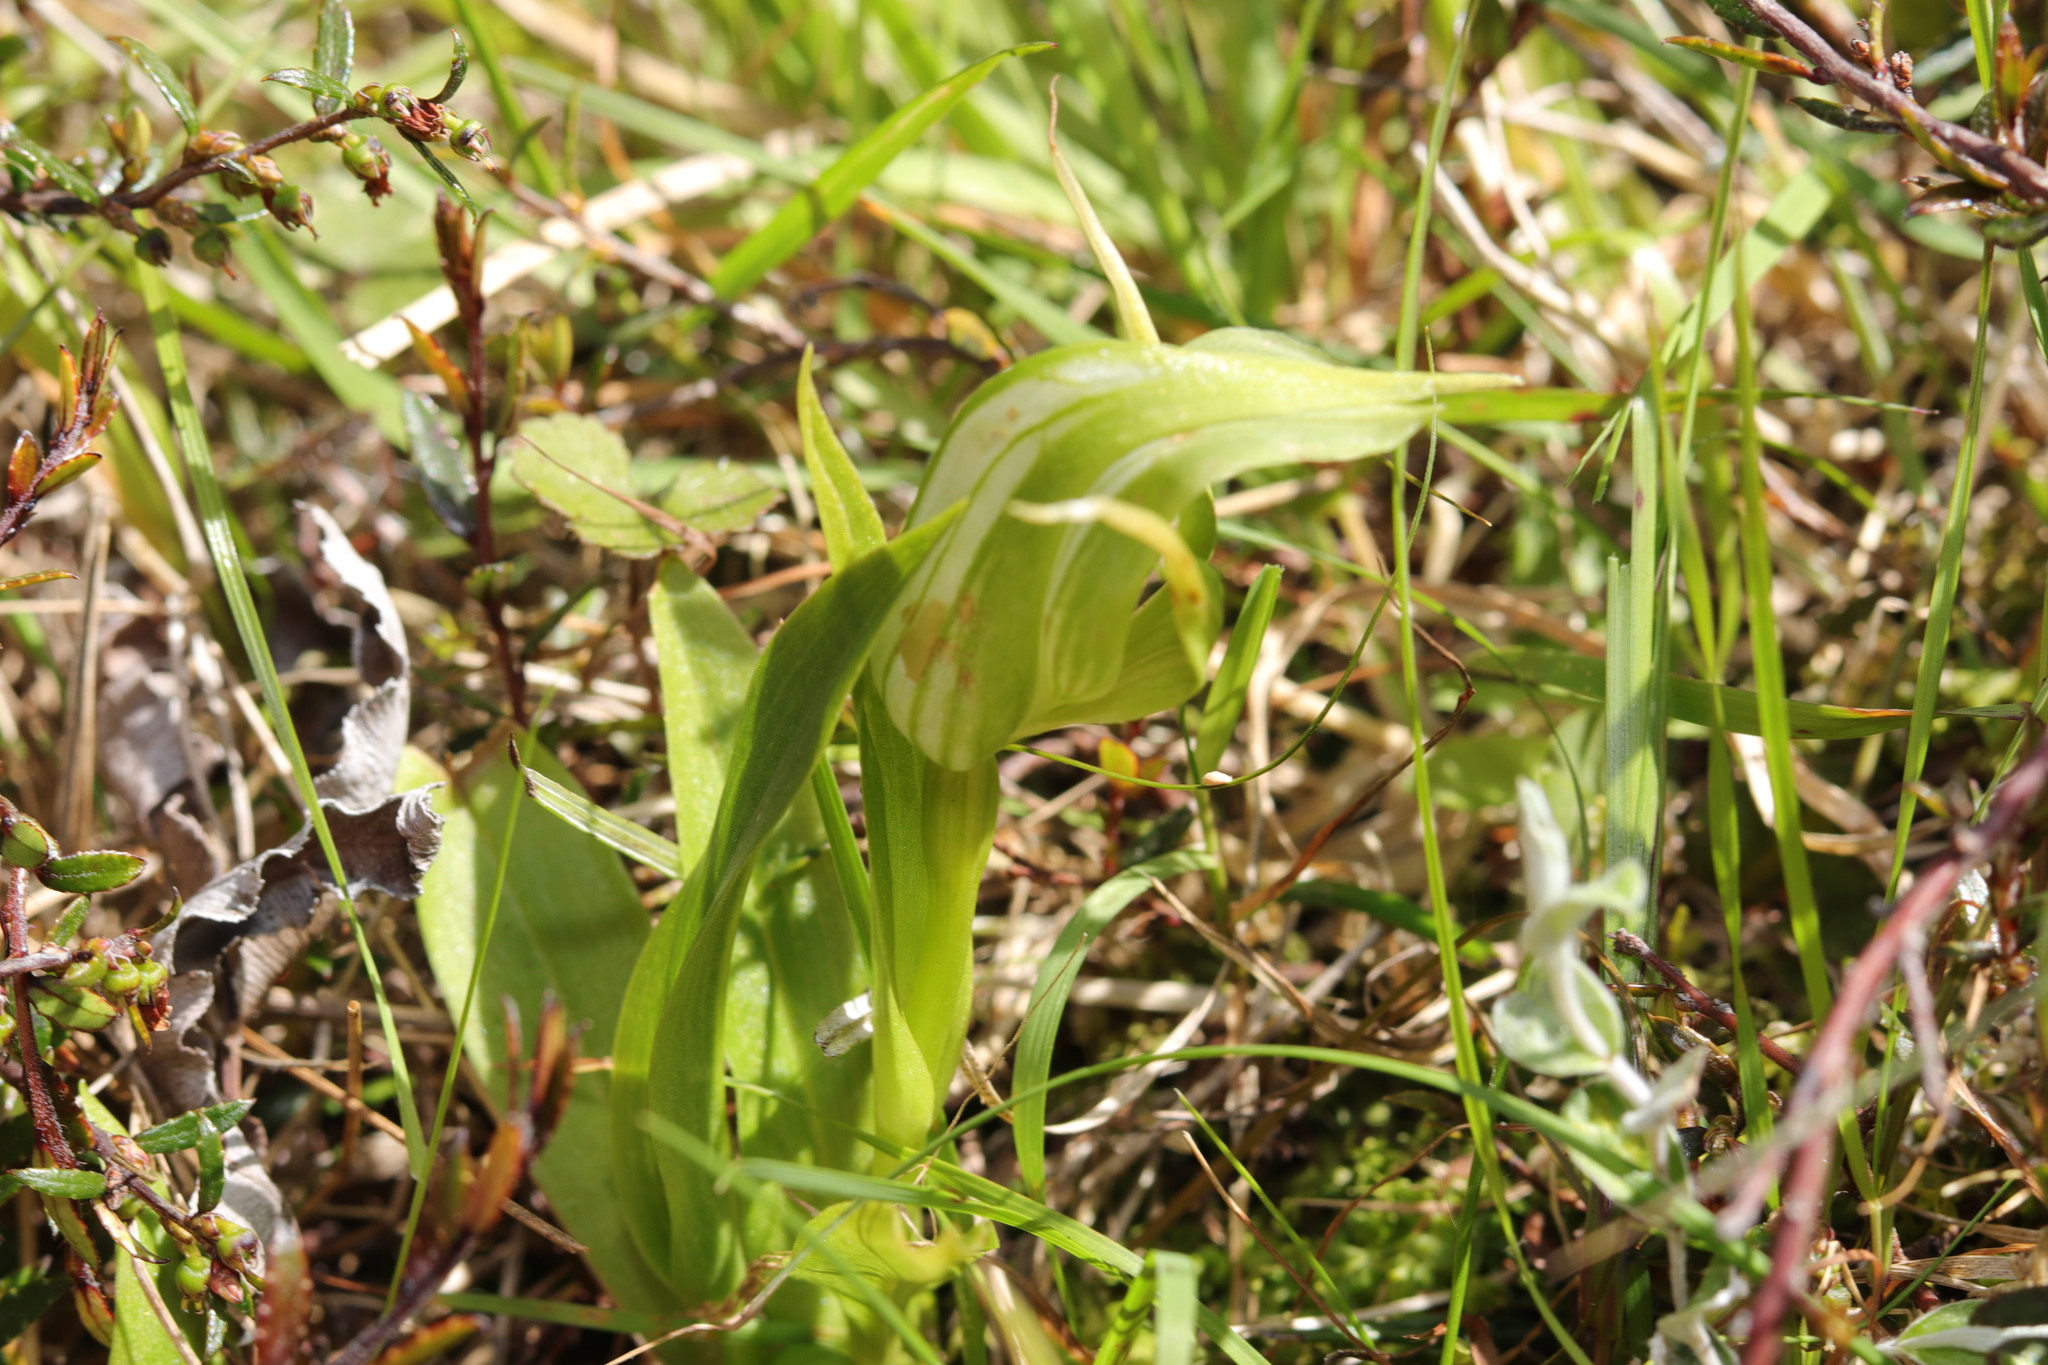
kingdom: Plantae
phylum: Tracheophyta
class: Liliopsida
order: Asparagales
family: Orchidaceae
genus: Pterostylis
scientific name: Pterostylis australis
